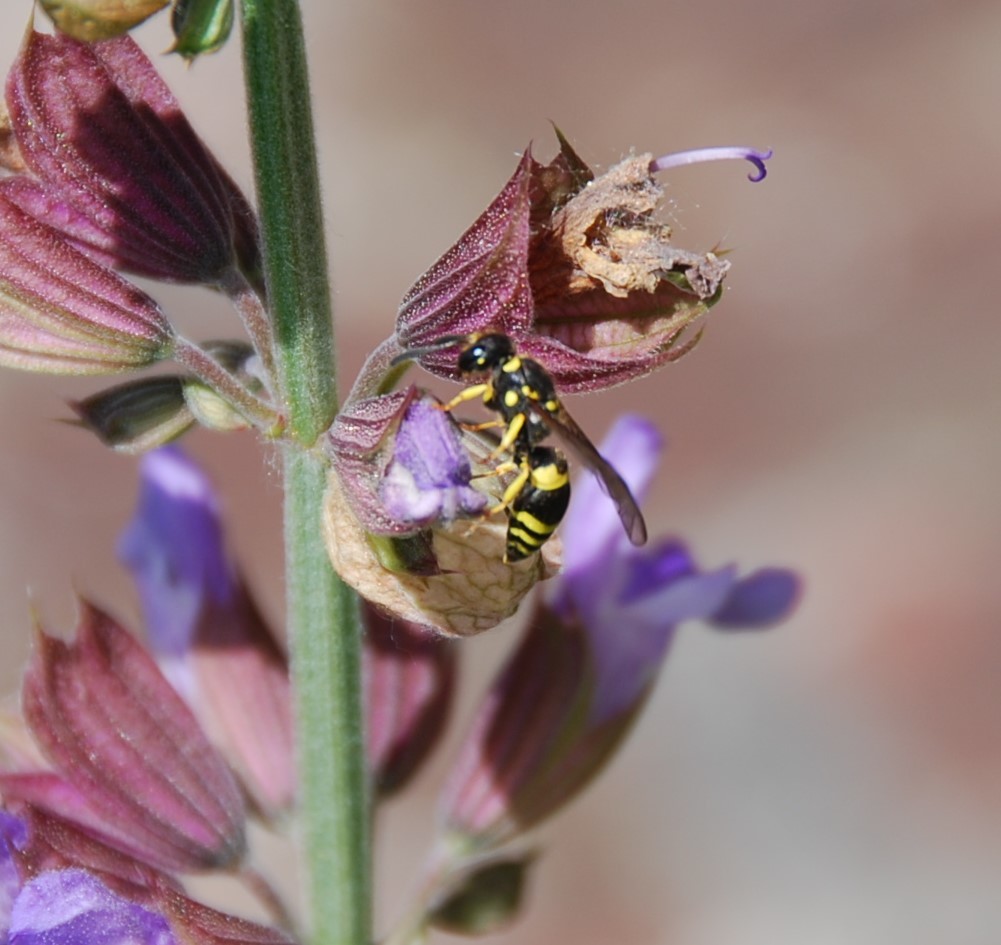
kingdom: Animalia
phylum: Arthropoda
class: Insecta
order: Hymenoptera
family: Vespidae
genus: Ancistrocerus
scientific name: Ancistrocerus
